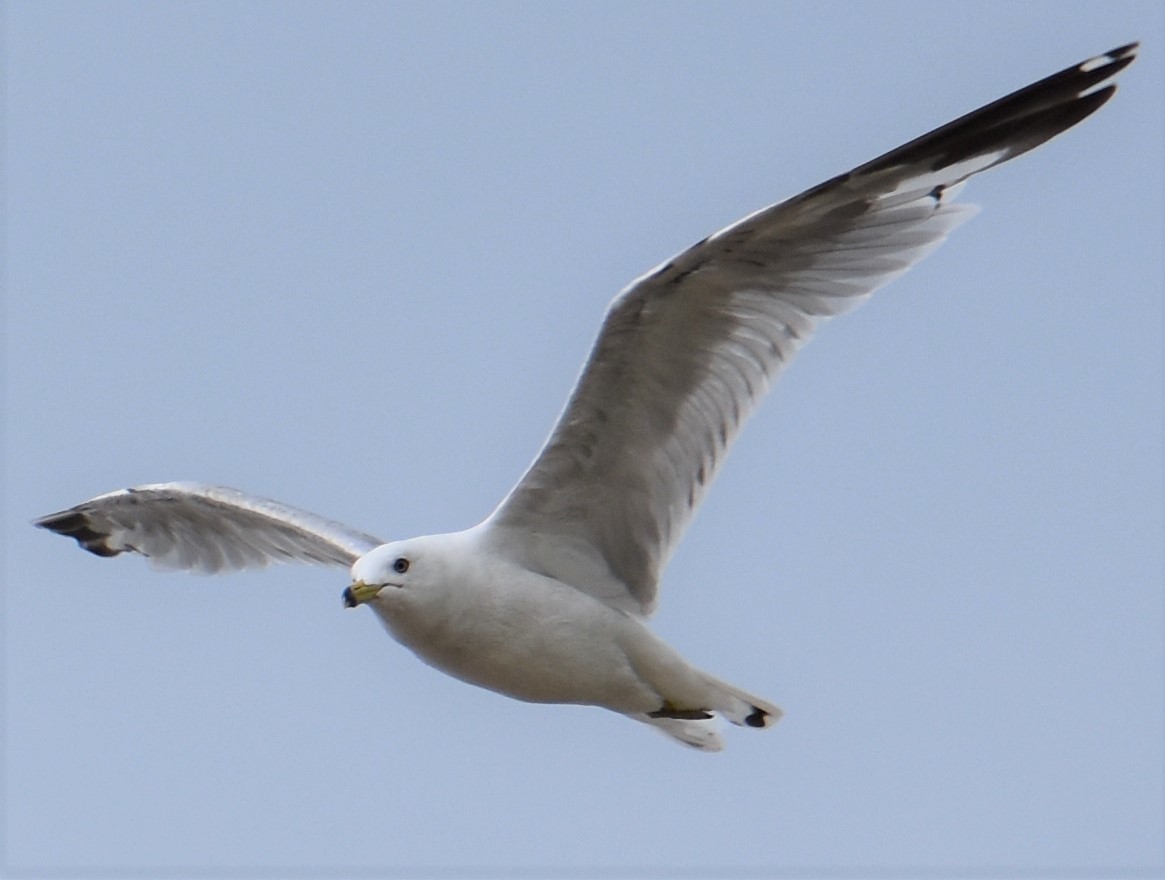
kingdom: Animalia
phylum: Chordata
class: Aves
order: Charadriiformes
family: Laridae
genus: Larus
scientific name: Larus delawarensis
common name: Ring-billed gull
